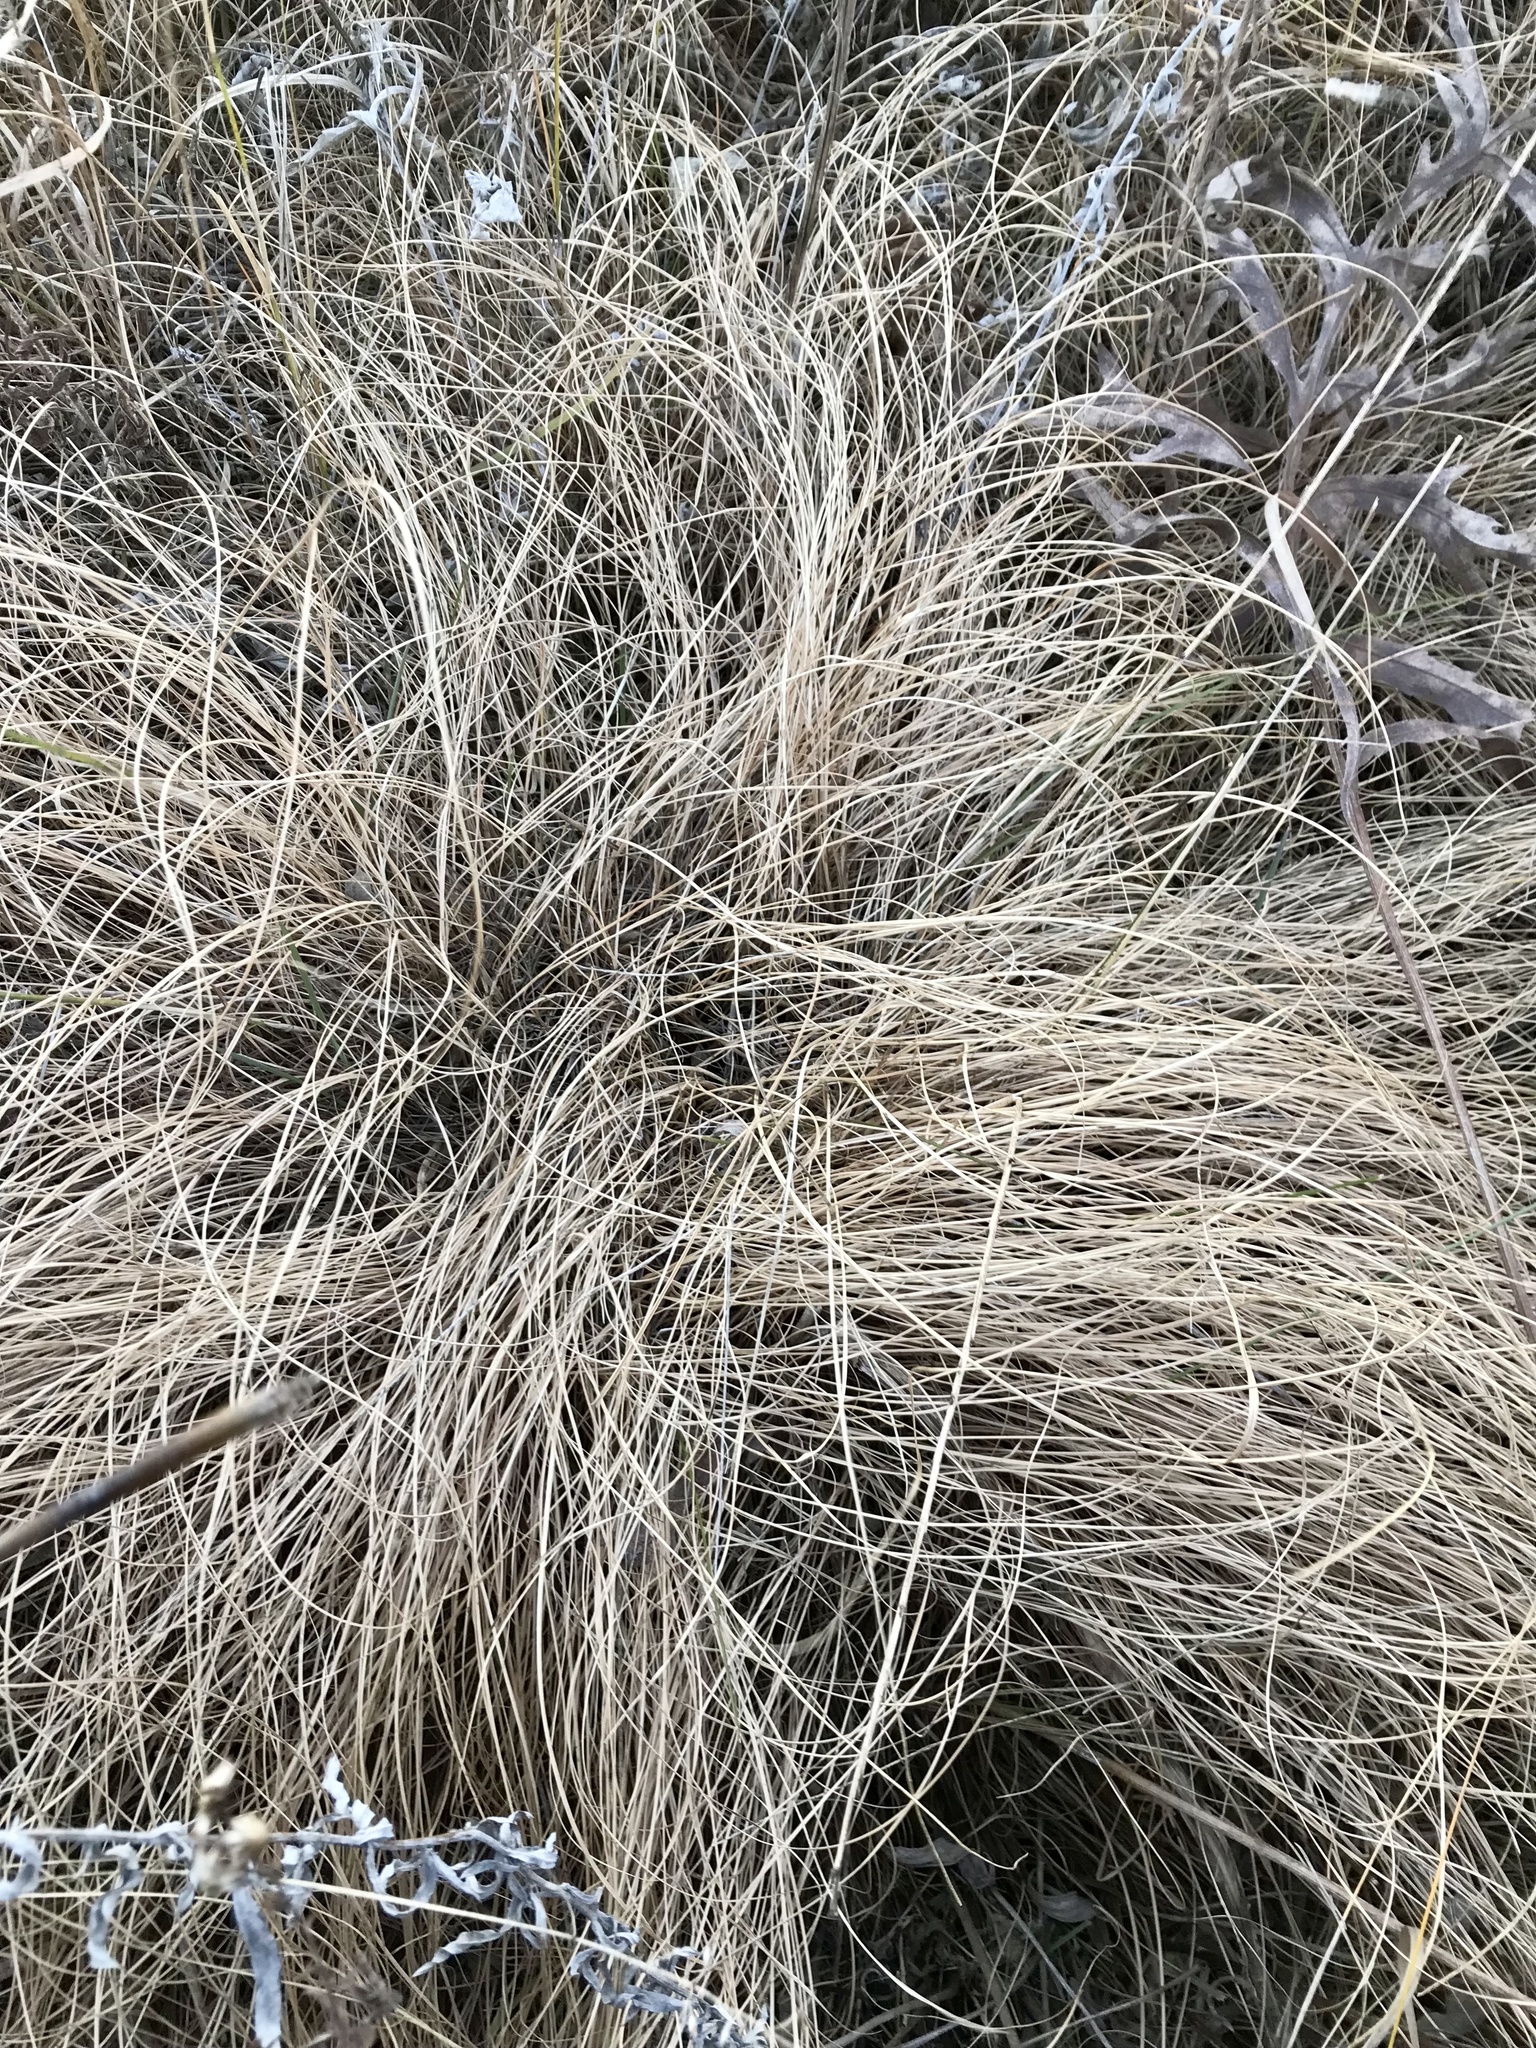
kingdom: Plantae
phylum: Tracheophyta
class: Liliopsida
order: Poales
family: Poaceae
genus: Sporobolus
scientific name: Sporobolus heterolepis
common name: Prairie dropseed
